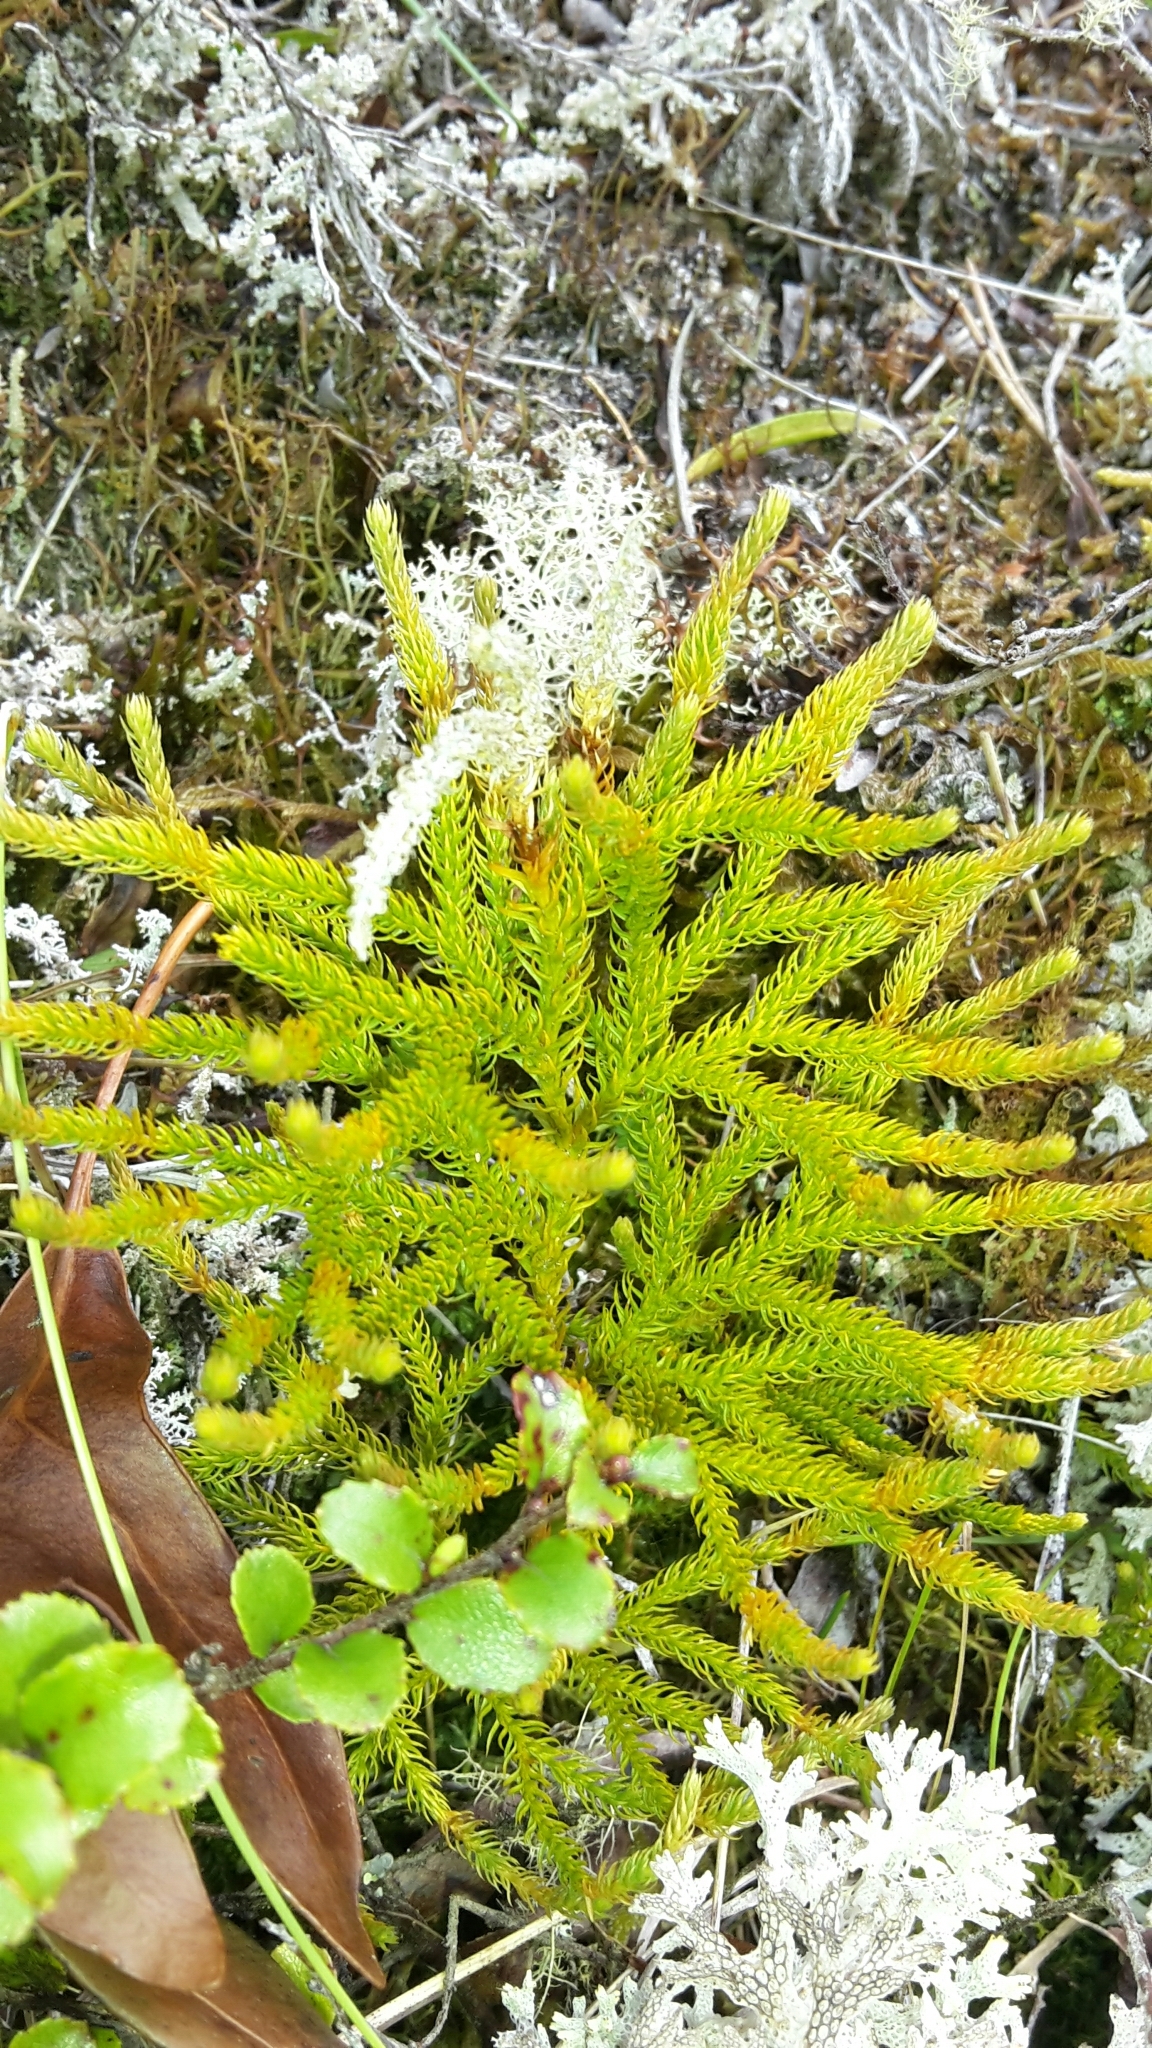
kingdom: Plantae
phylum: Tracheophyta
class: Lycopodiopsida
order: Lycopodiales
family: Lycopodiaceae
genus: Austrolycopodium
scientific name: Austrolycopodium fastigiatum
